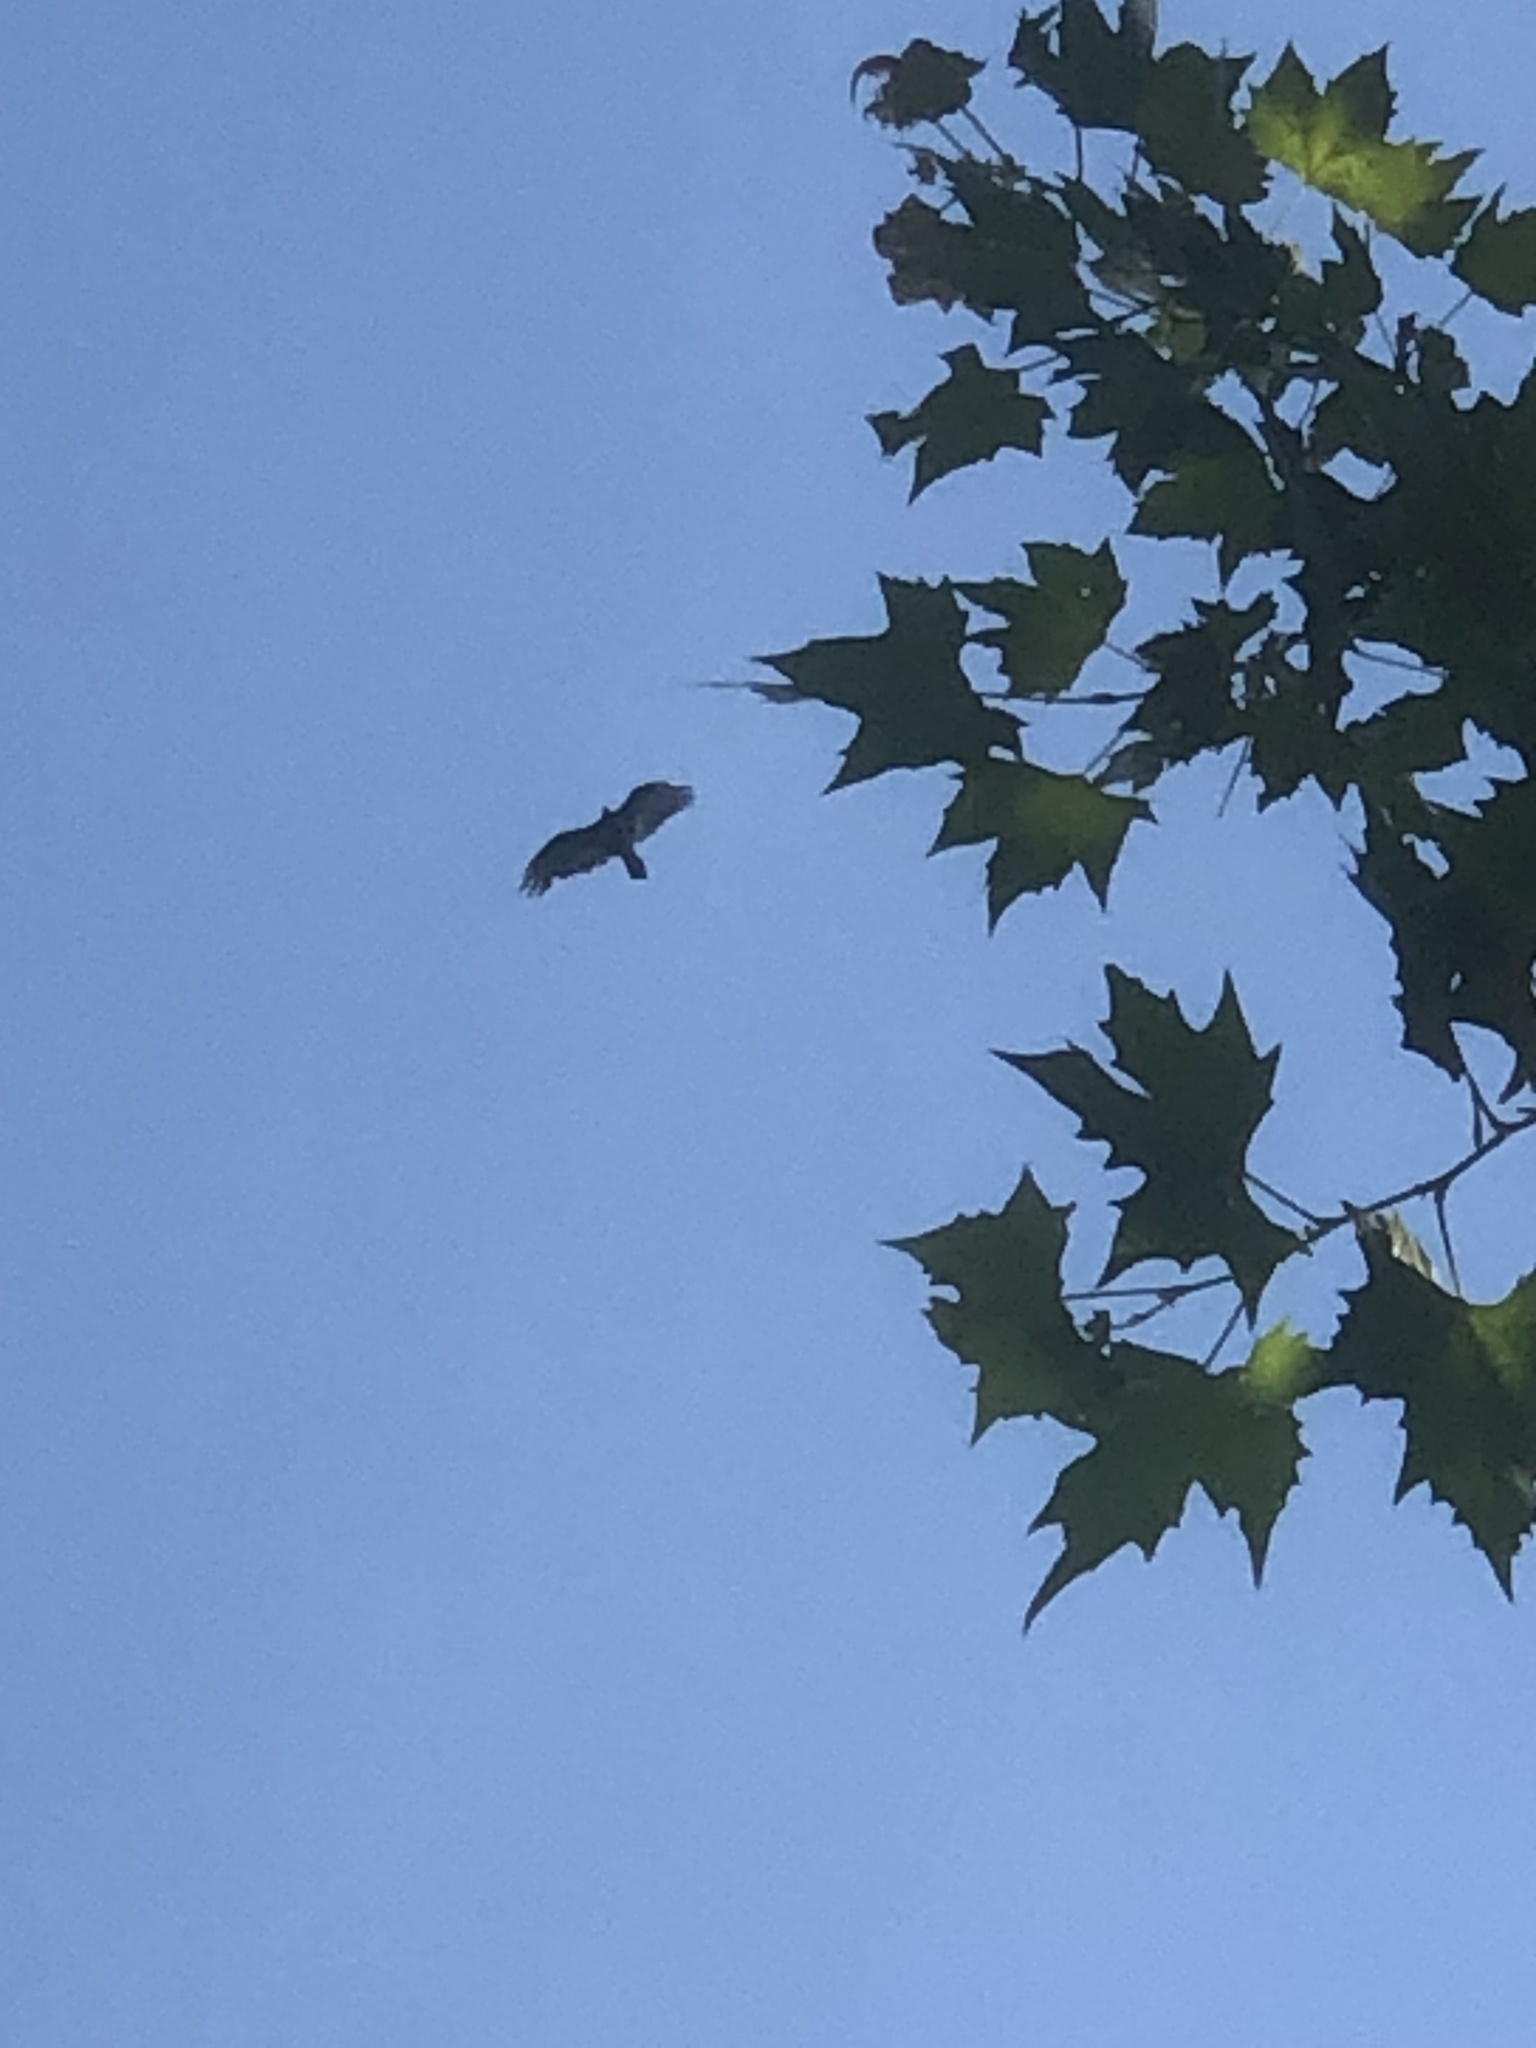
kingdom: Animalia
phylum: Chordata
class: Aves
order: Accipitriformes
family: Cathartidae
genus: Cathartes
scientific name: Cathartes aura
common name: Turkey vulture
